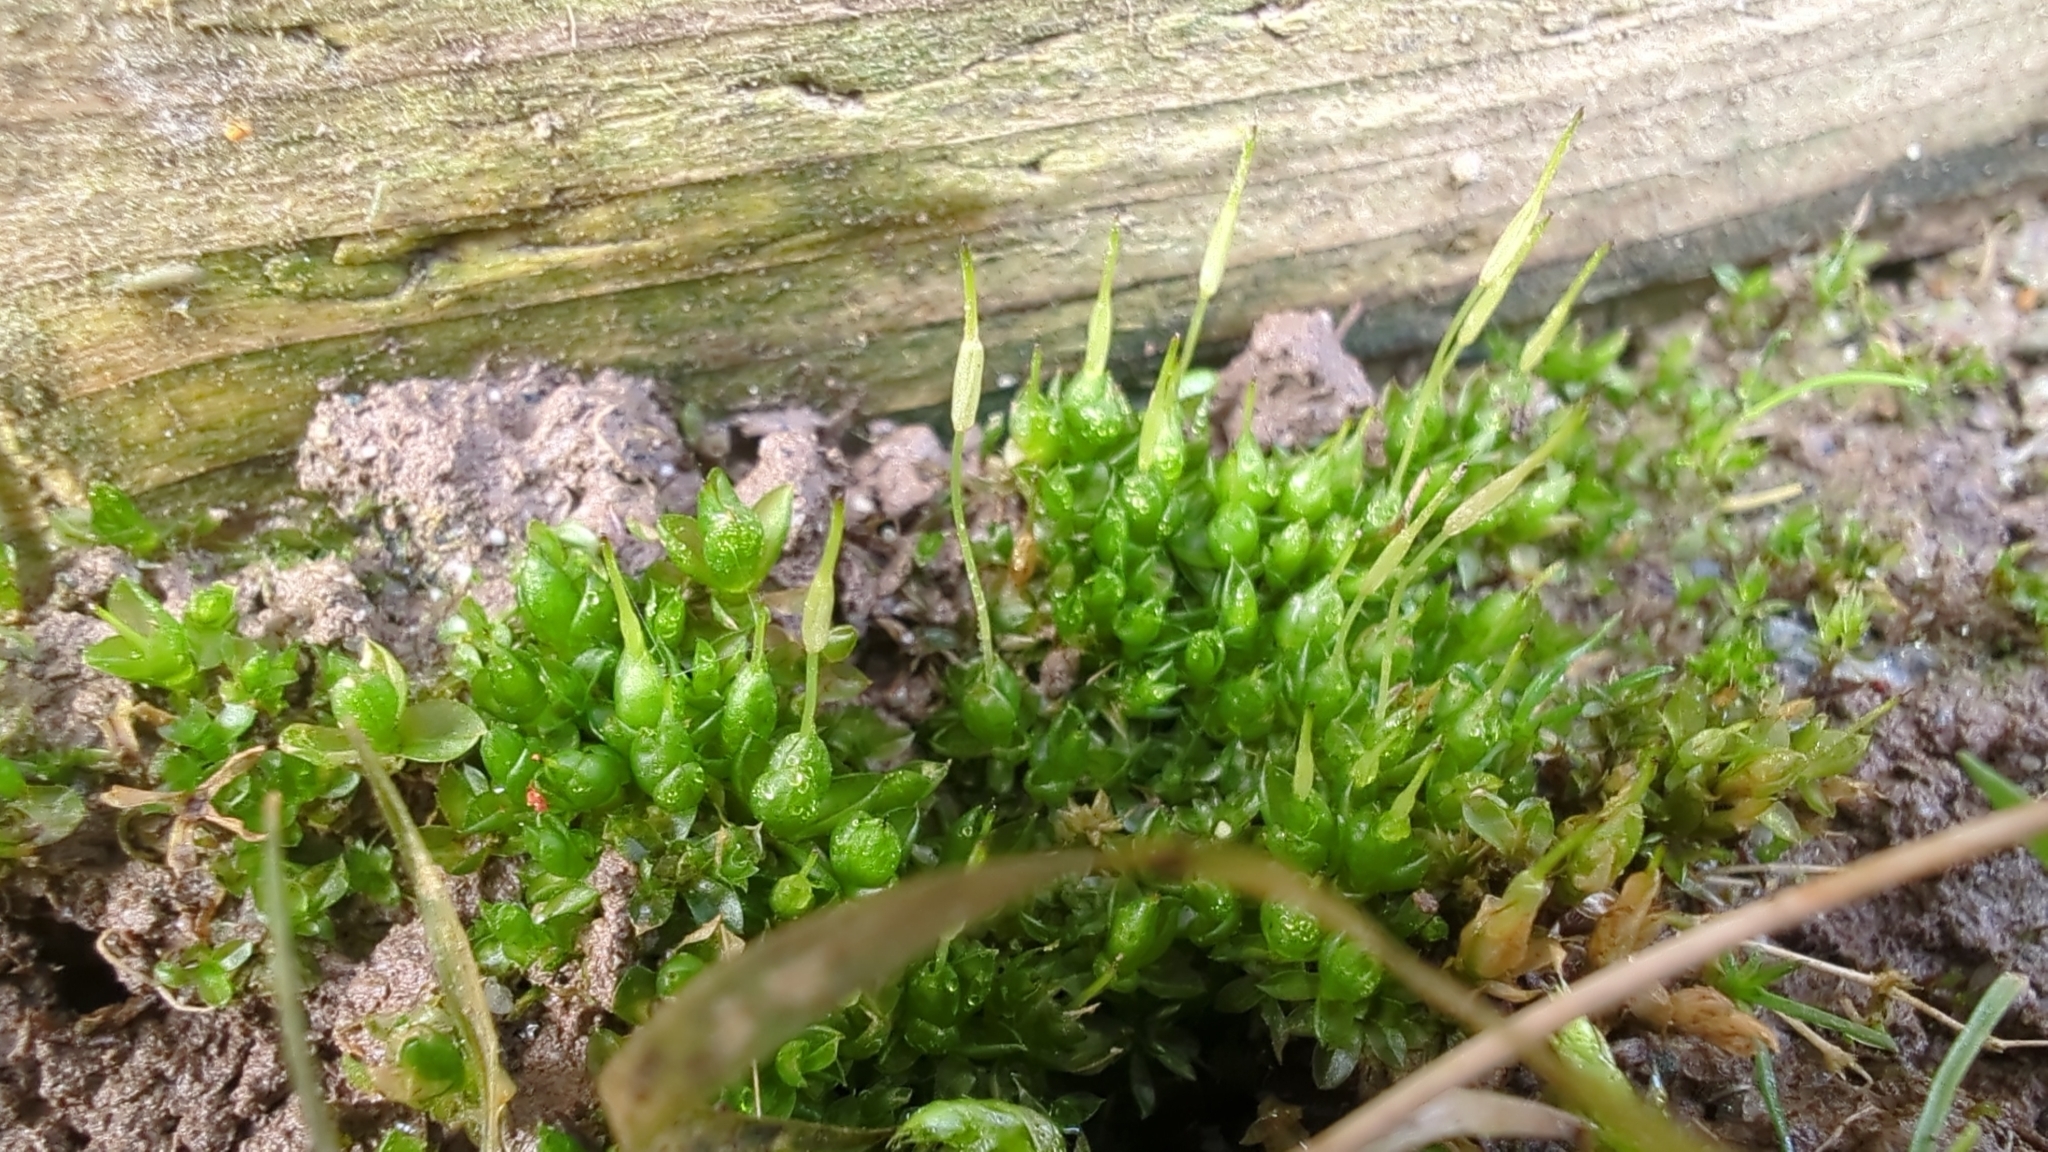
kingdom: Plantae
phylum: Bryophyta
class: Bryopsida
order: Funariales
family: Funariaceae
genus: Funaria
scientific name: Funaria hygrometrica
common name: Common cord moss
